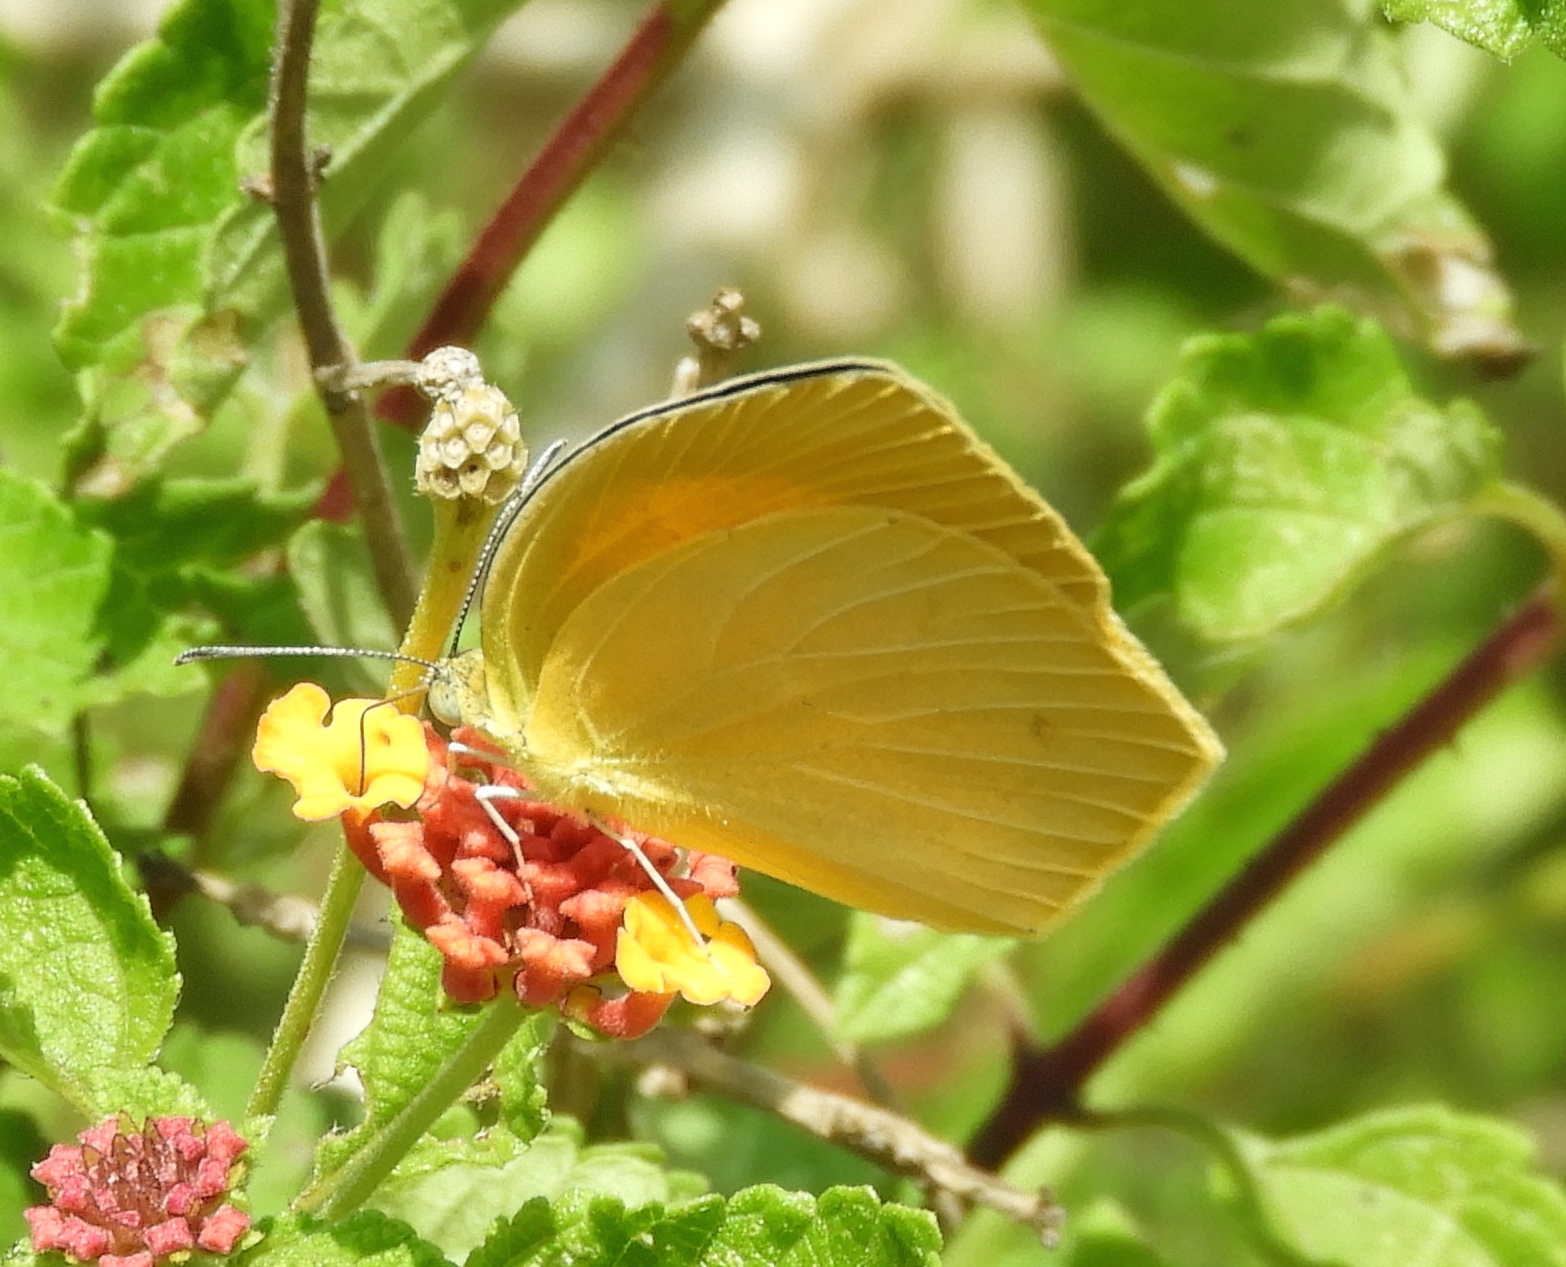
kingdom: Animalia
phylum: Arthropoda
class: Insecta
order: Lepidoptera
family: Pieridae
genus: Pyrisitia
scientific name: Pyrisitia proterpia
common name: Tailed orange
